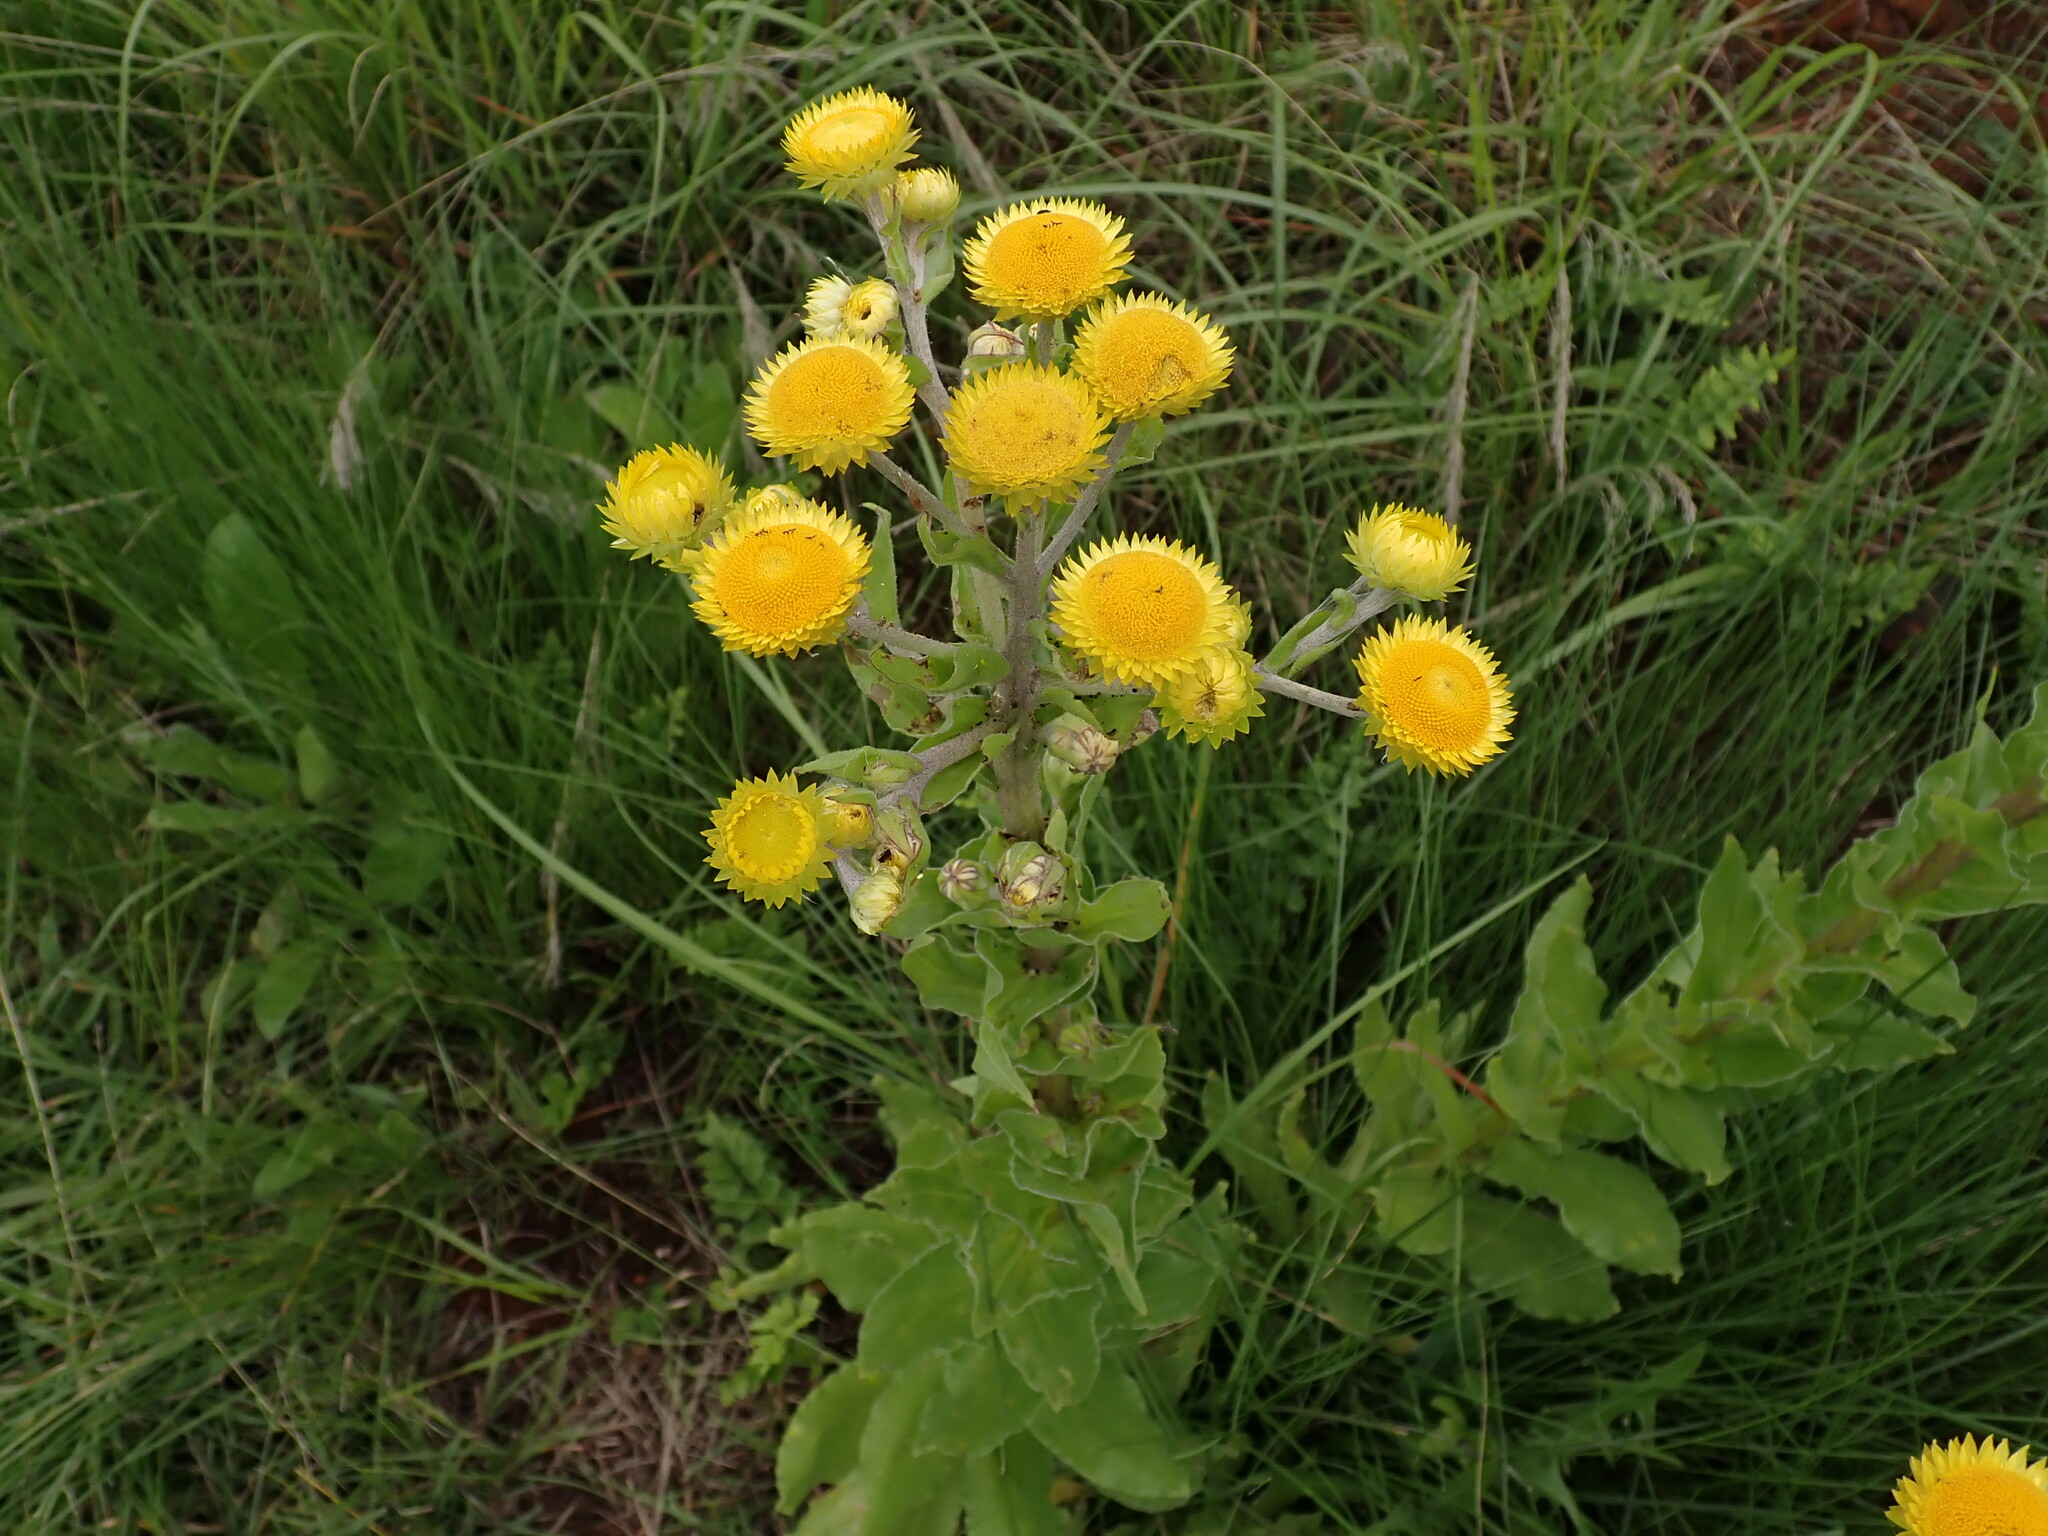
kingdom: Plantae
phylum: Tracheophyta
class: Magnoliopsida
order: Asterales
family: Asteraceae
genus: Helichrysum
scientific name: Helichrysum ruderale
